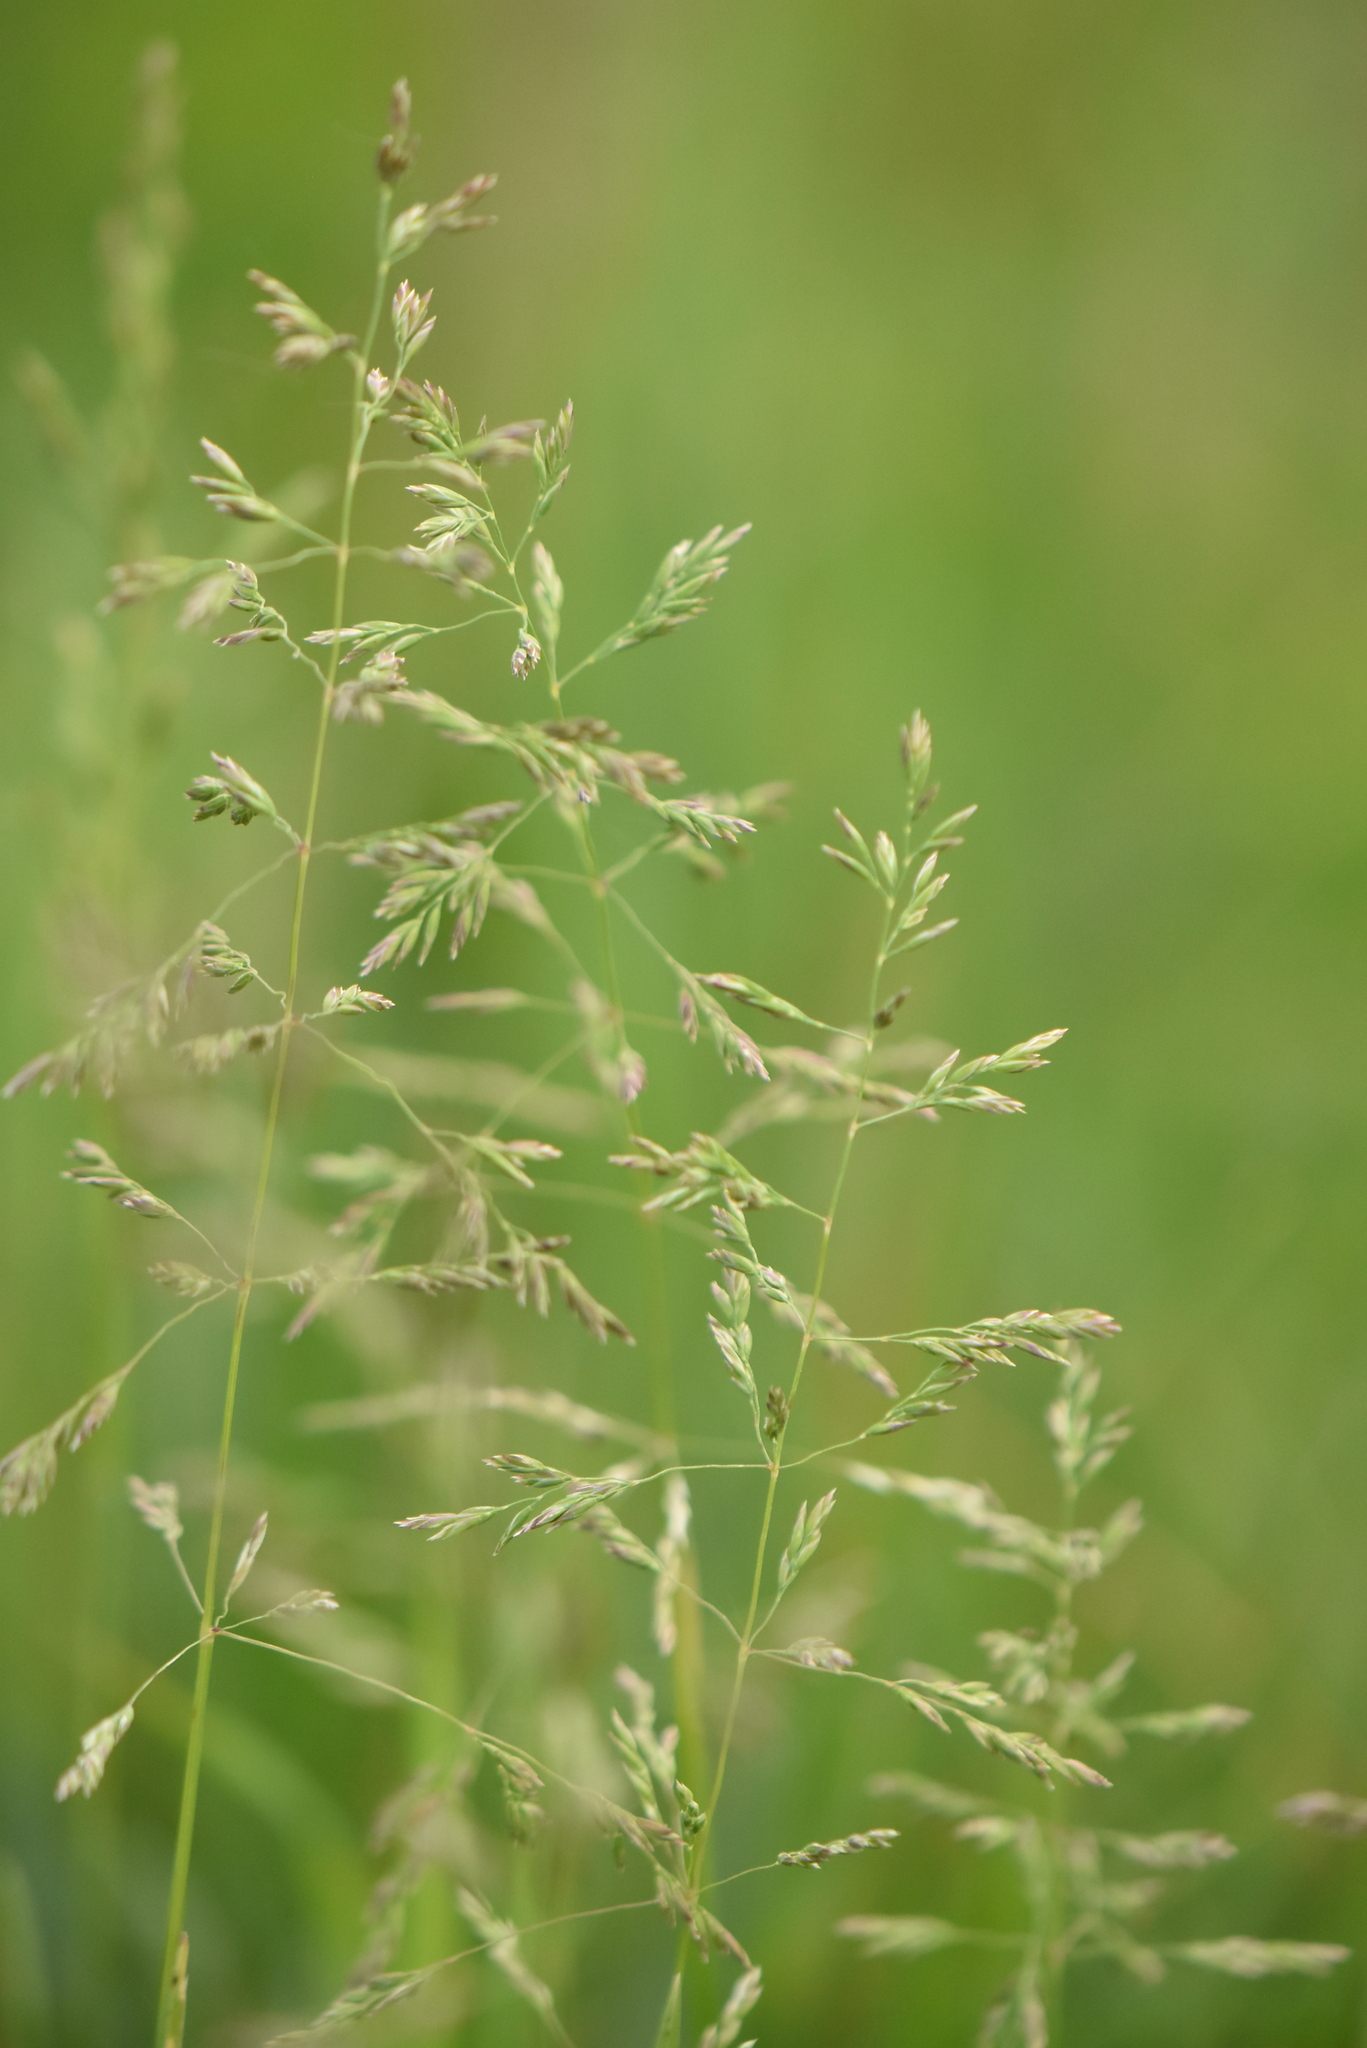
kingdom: Plantae
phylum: Tracheophyta
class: Liliopsida
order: Poales
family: Poaceae
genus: Poa
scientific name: Poa pratensis
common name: Kentucky bluegrass
